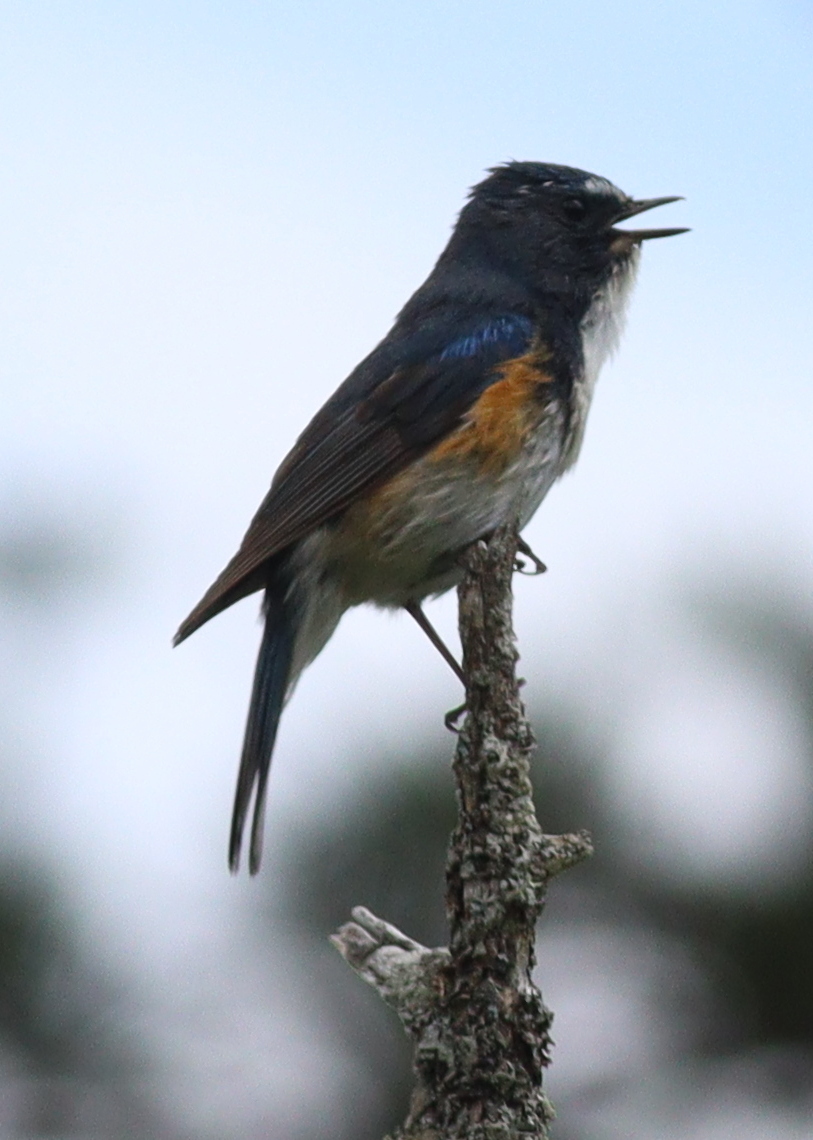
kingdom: Animalia
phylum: Chordata
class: Aves
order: Passeriformes
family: Muscicapidae
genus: Tarsiger
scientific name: Tarsiger cyanurus
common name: Red-flanked bluetail
